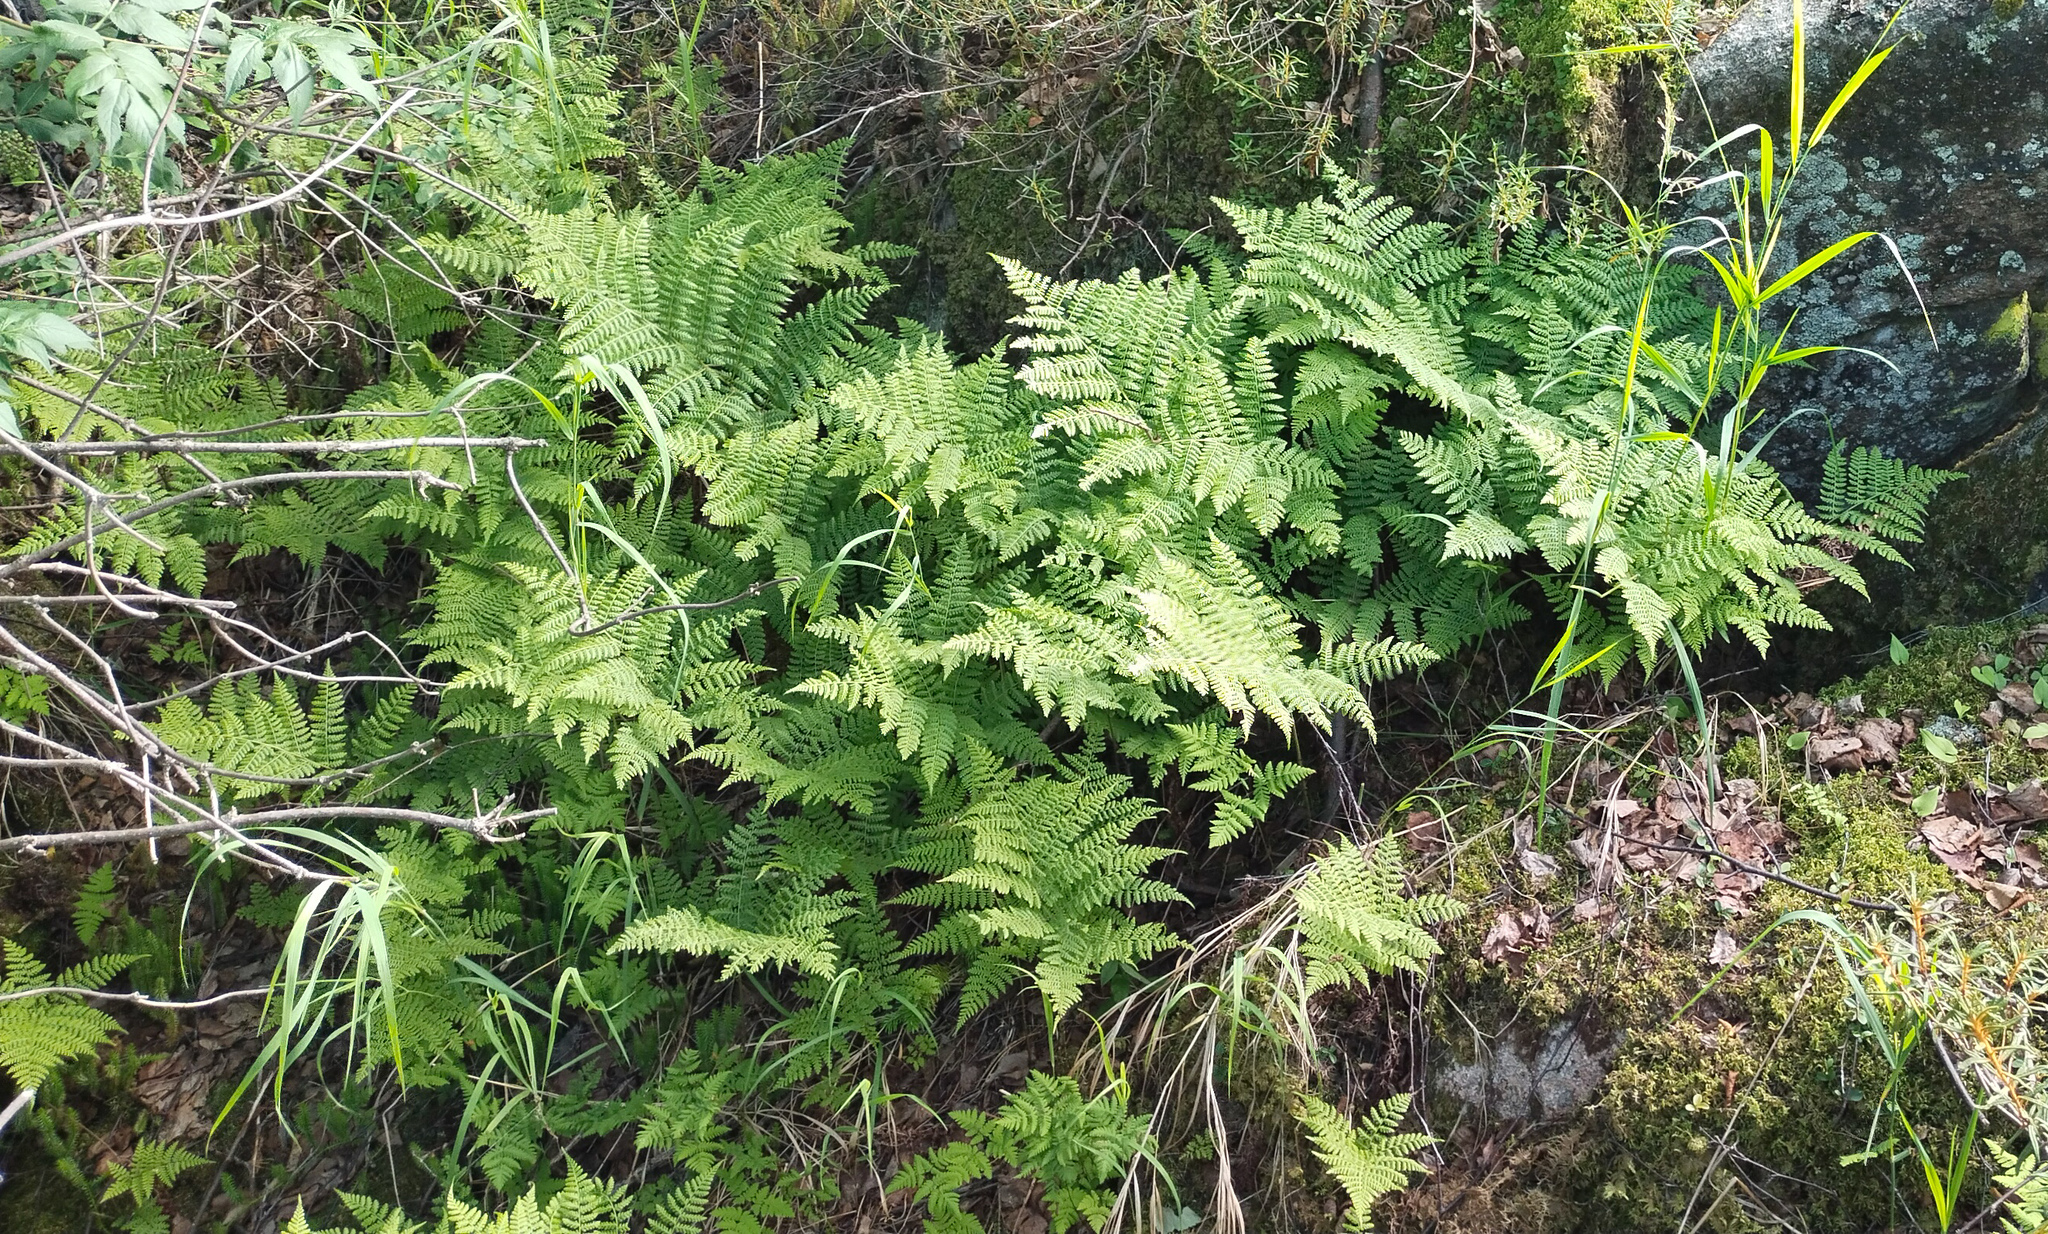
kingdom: Plantae
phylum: Tracheophyta
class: Polypodiopsida
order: Polypodiales
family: Athyriaceae
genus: Diplazium
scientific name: Diplazium sibiricum
